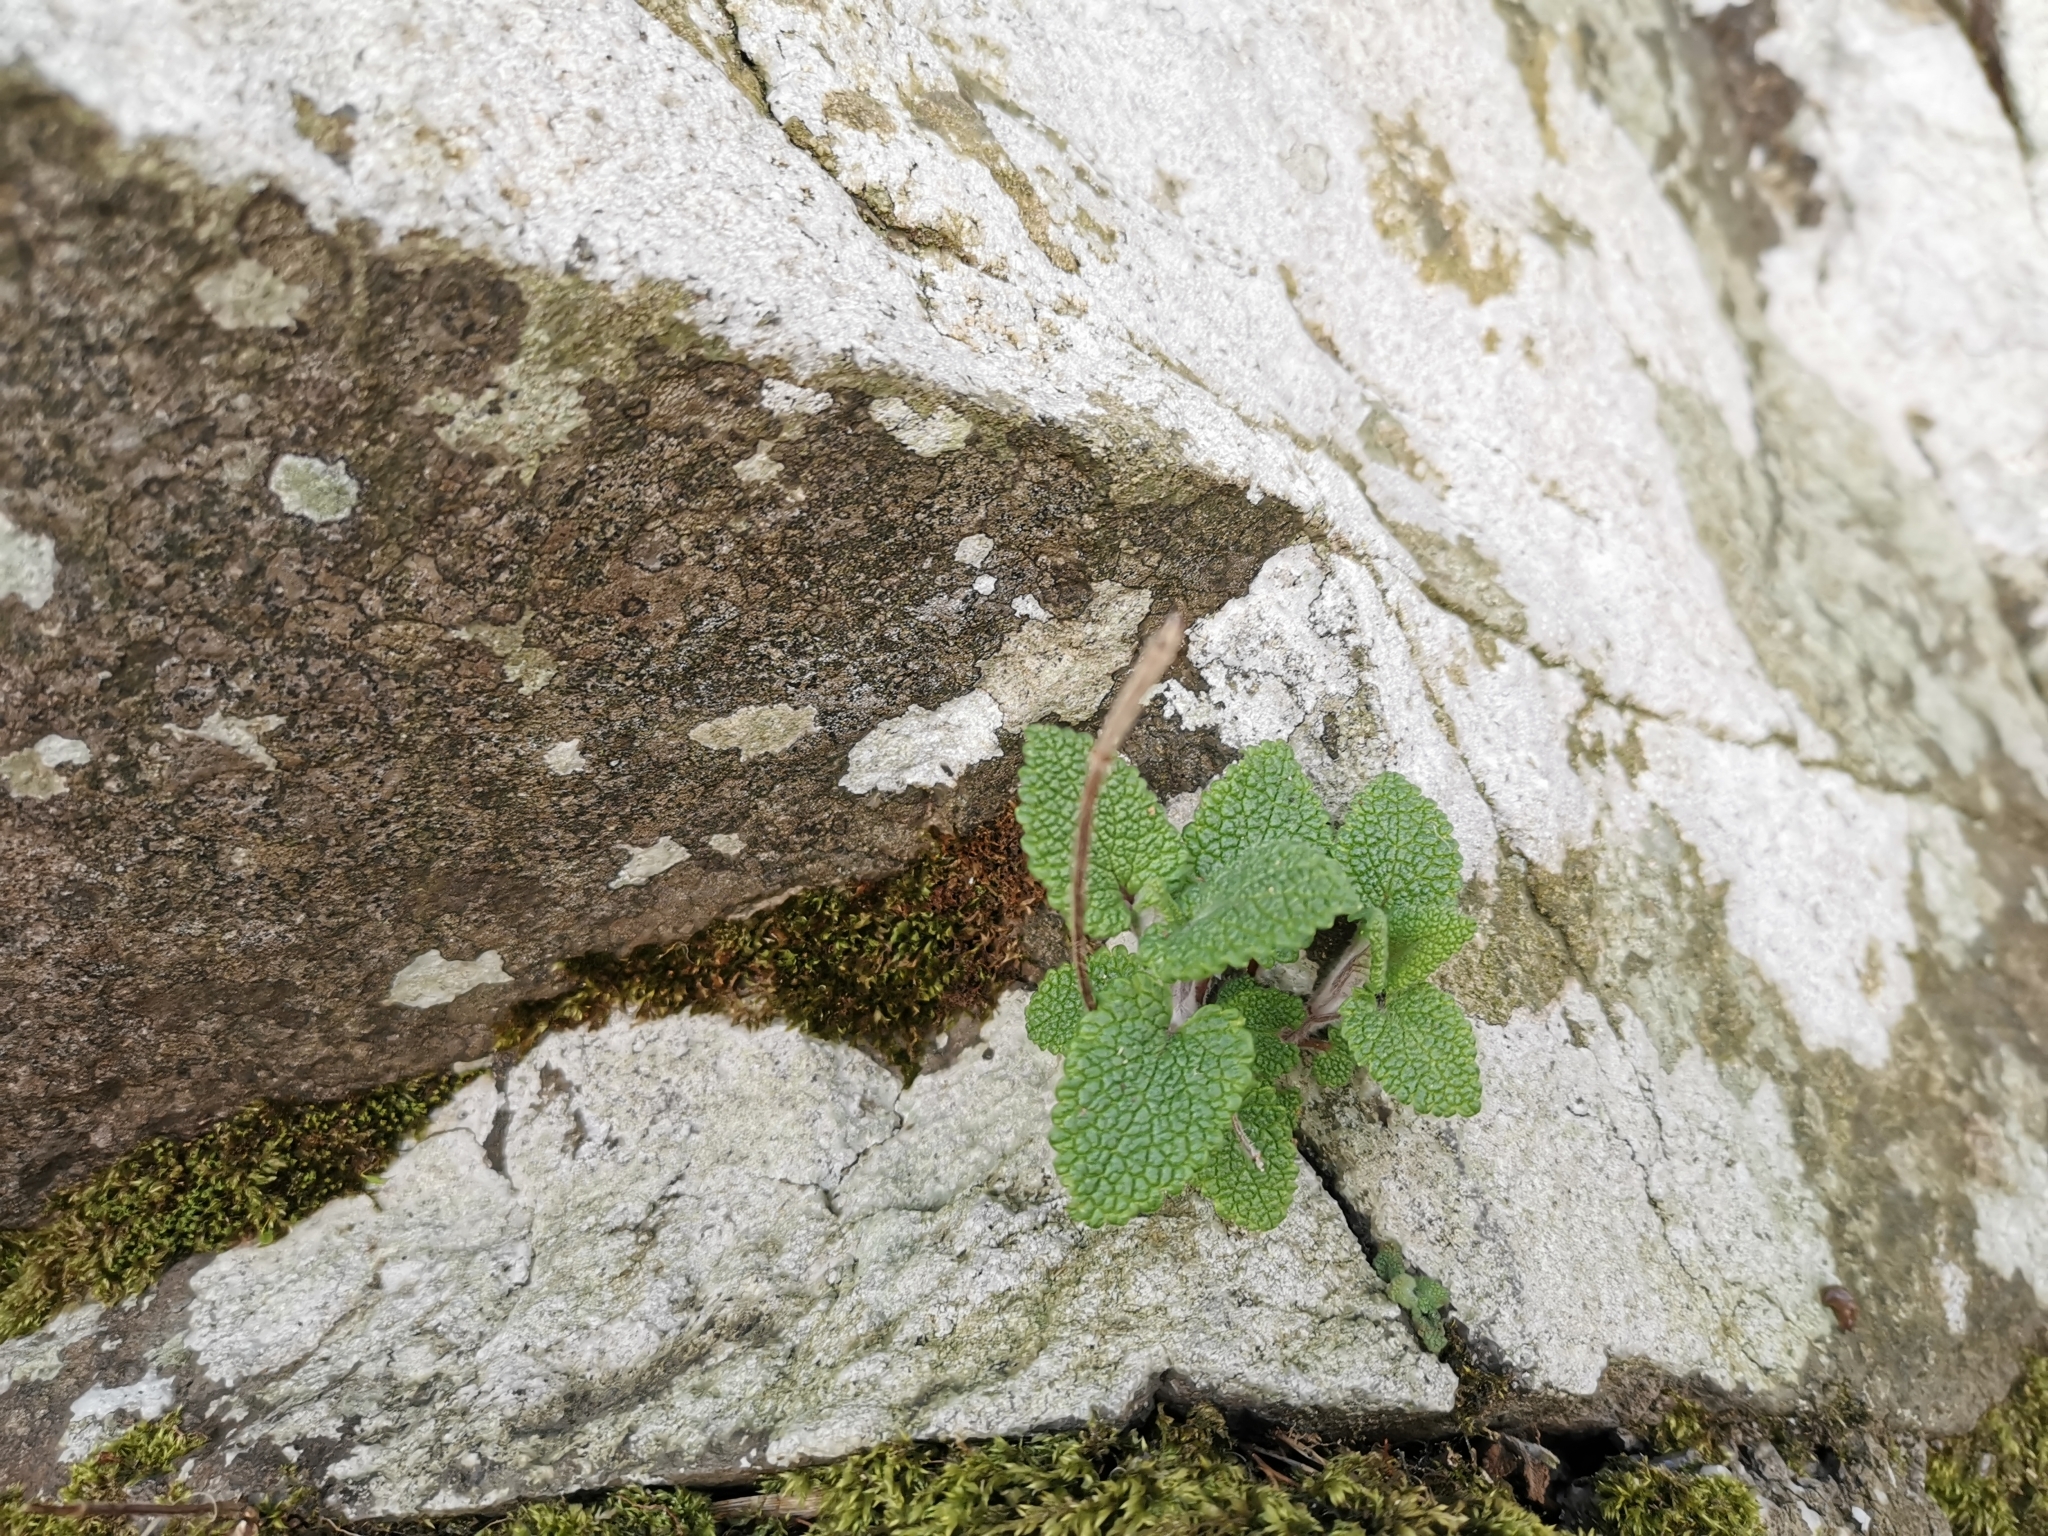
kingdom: Plantae
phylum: Tracheophyta
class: Magnoliopsida
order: Lamiales
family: Lamiaceae
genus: Teucrium
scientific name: Teucrium scorodonia
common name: Woodland germander
